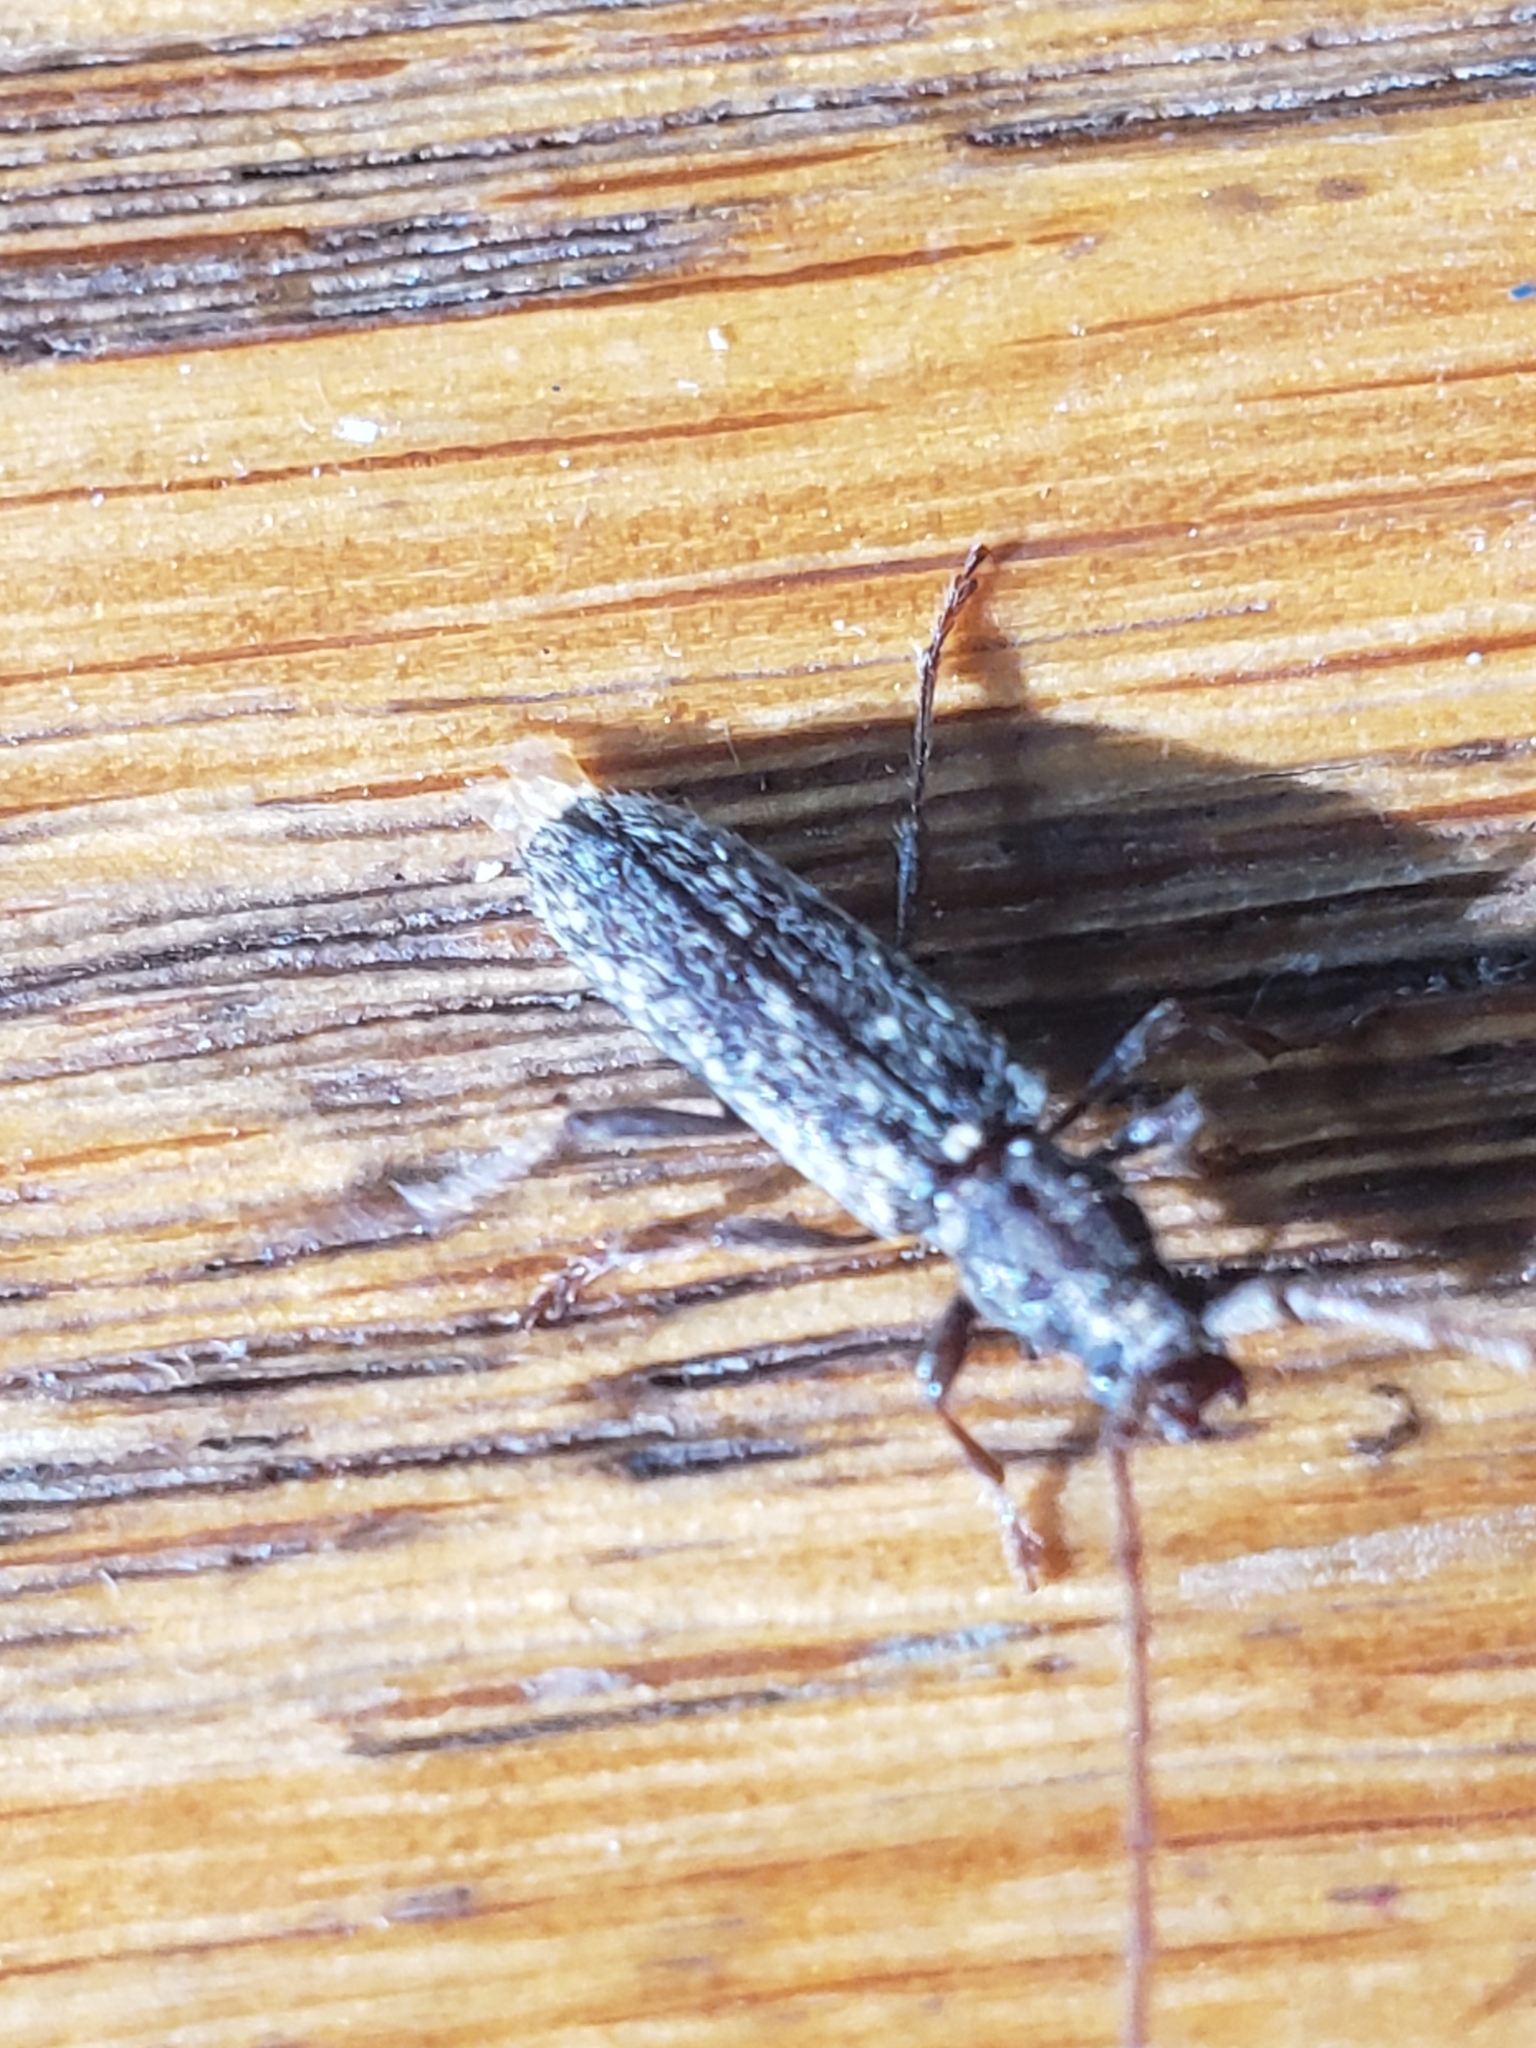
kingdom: Animalia
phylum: Arthropoda
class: Insecta
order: Coleoptera
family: Cerambycidae
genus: Anelaphus
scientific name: Anelaphus pumilus
